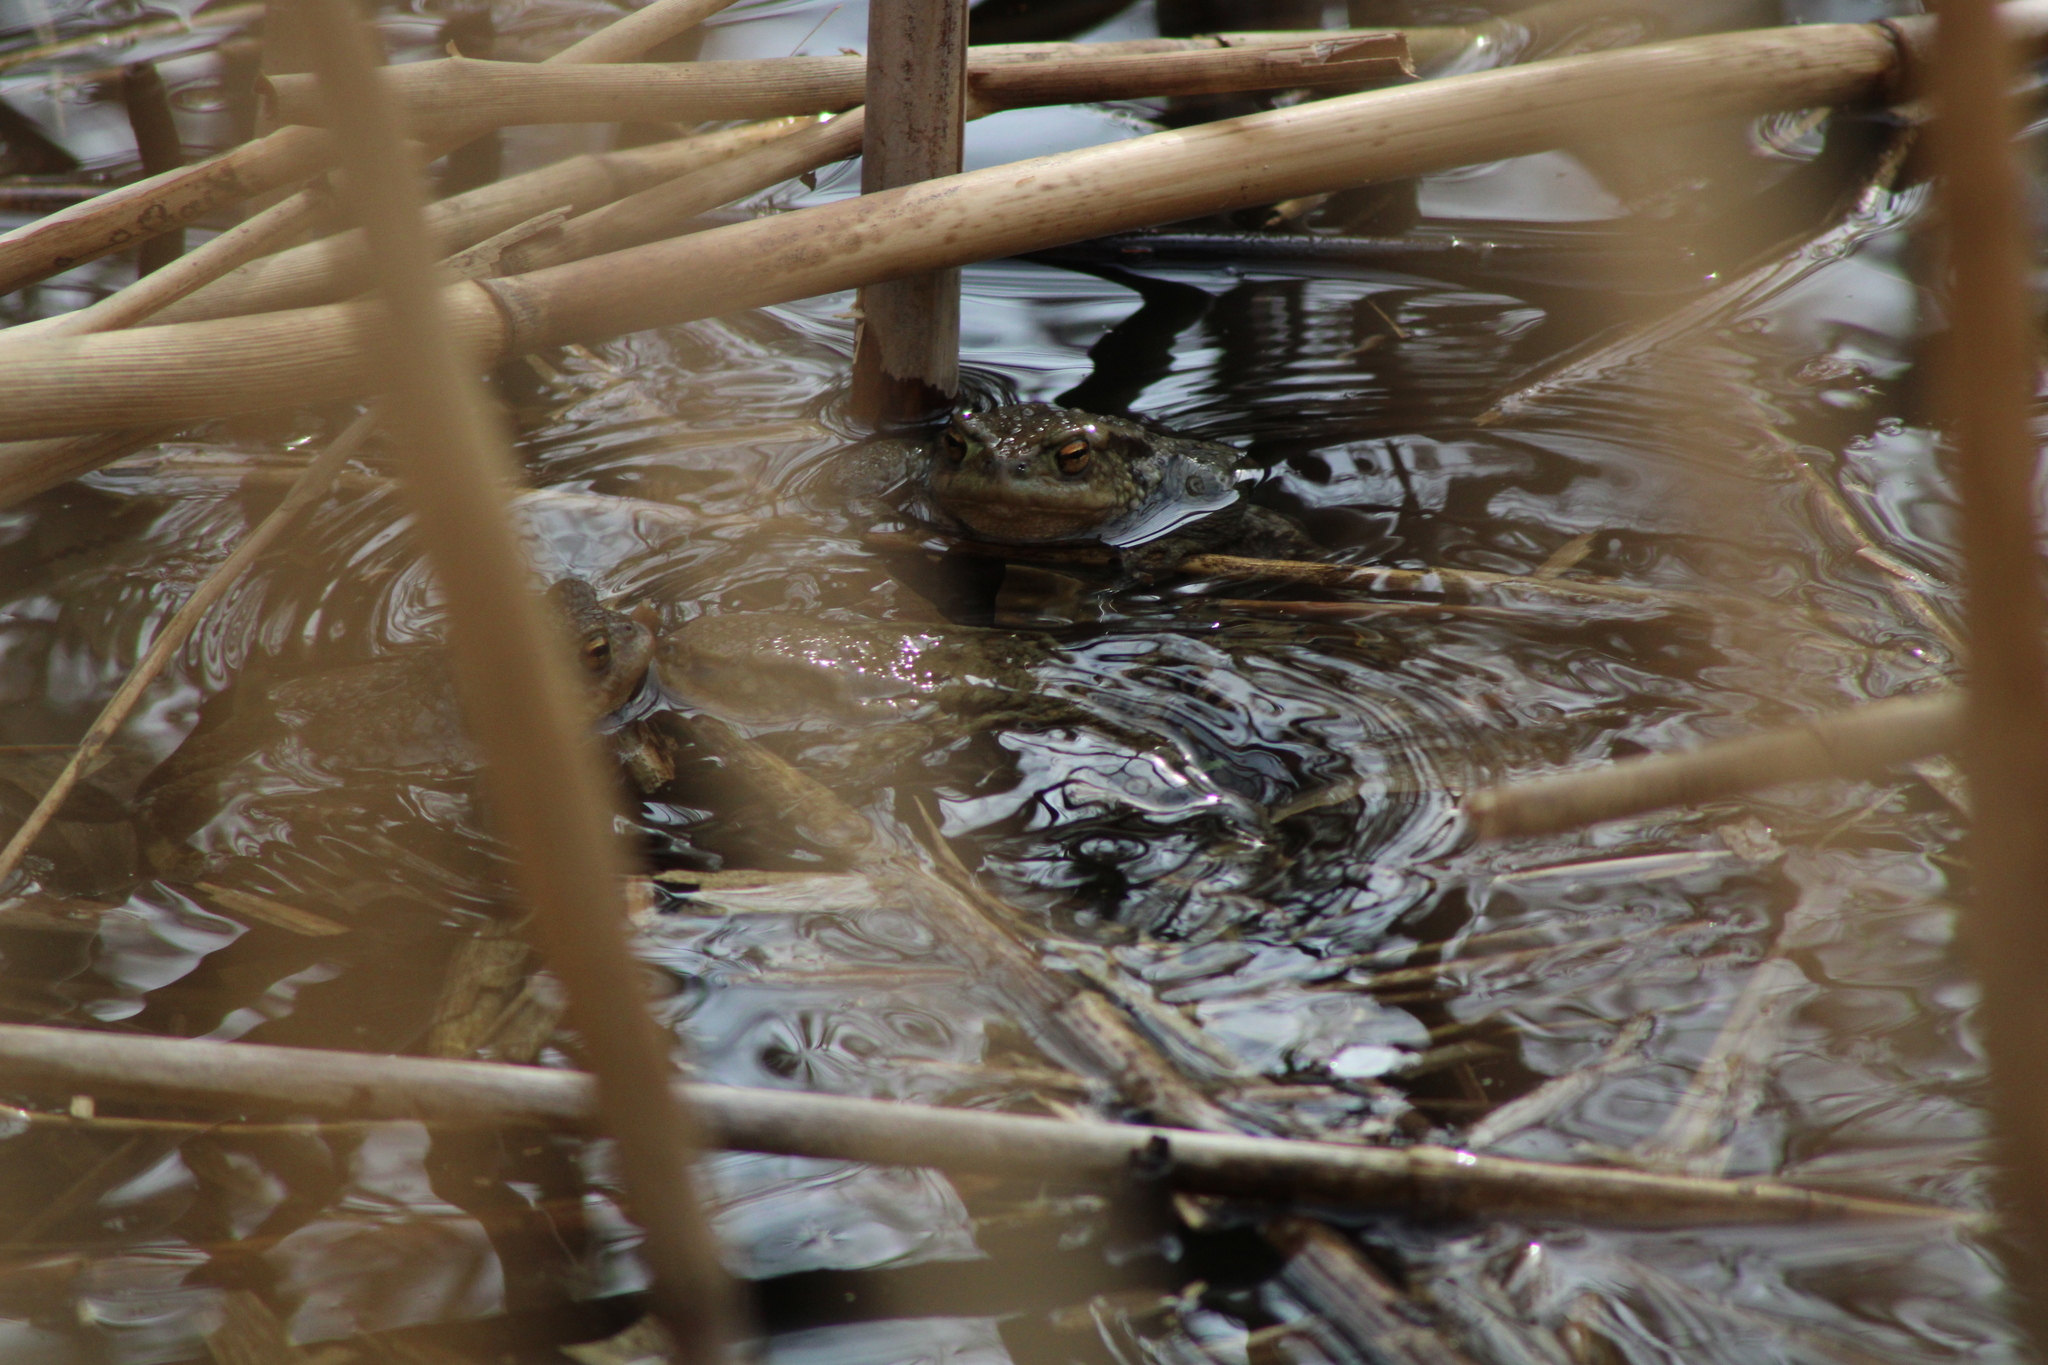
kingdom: Animalia
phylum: Chordata
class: Amphibia
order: Anura
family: Bufonidae
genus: Bufo
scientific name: Bufo bufo
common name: Common toad
